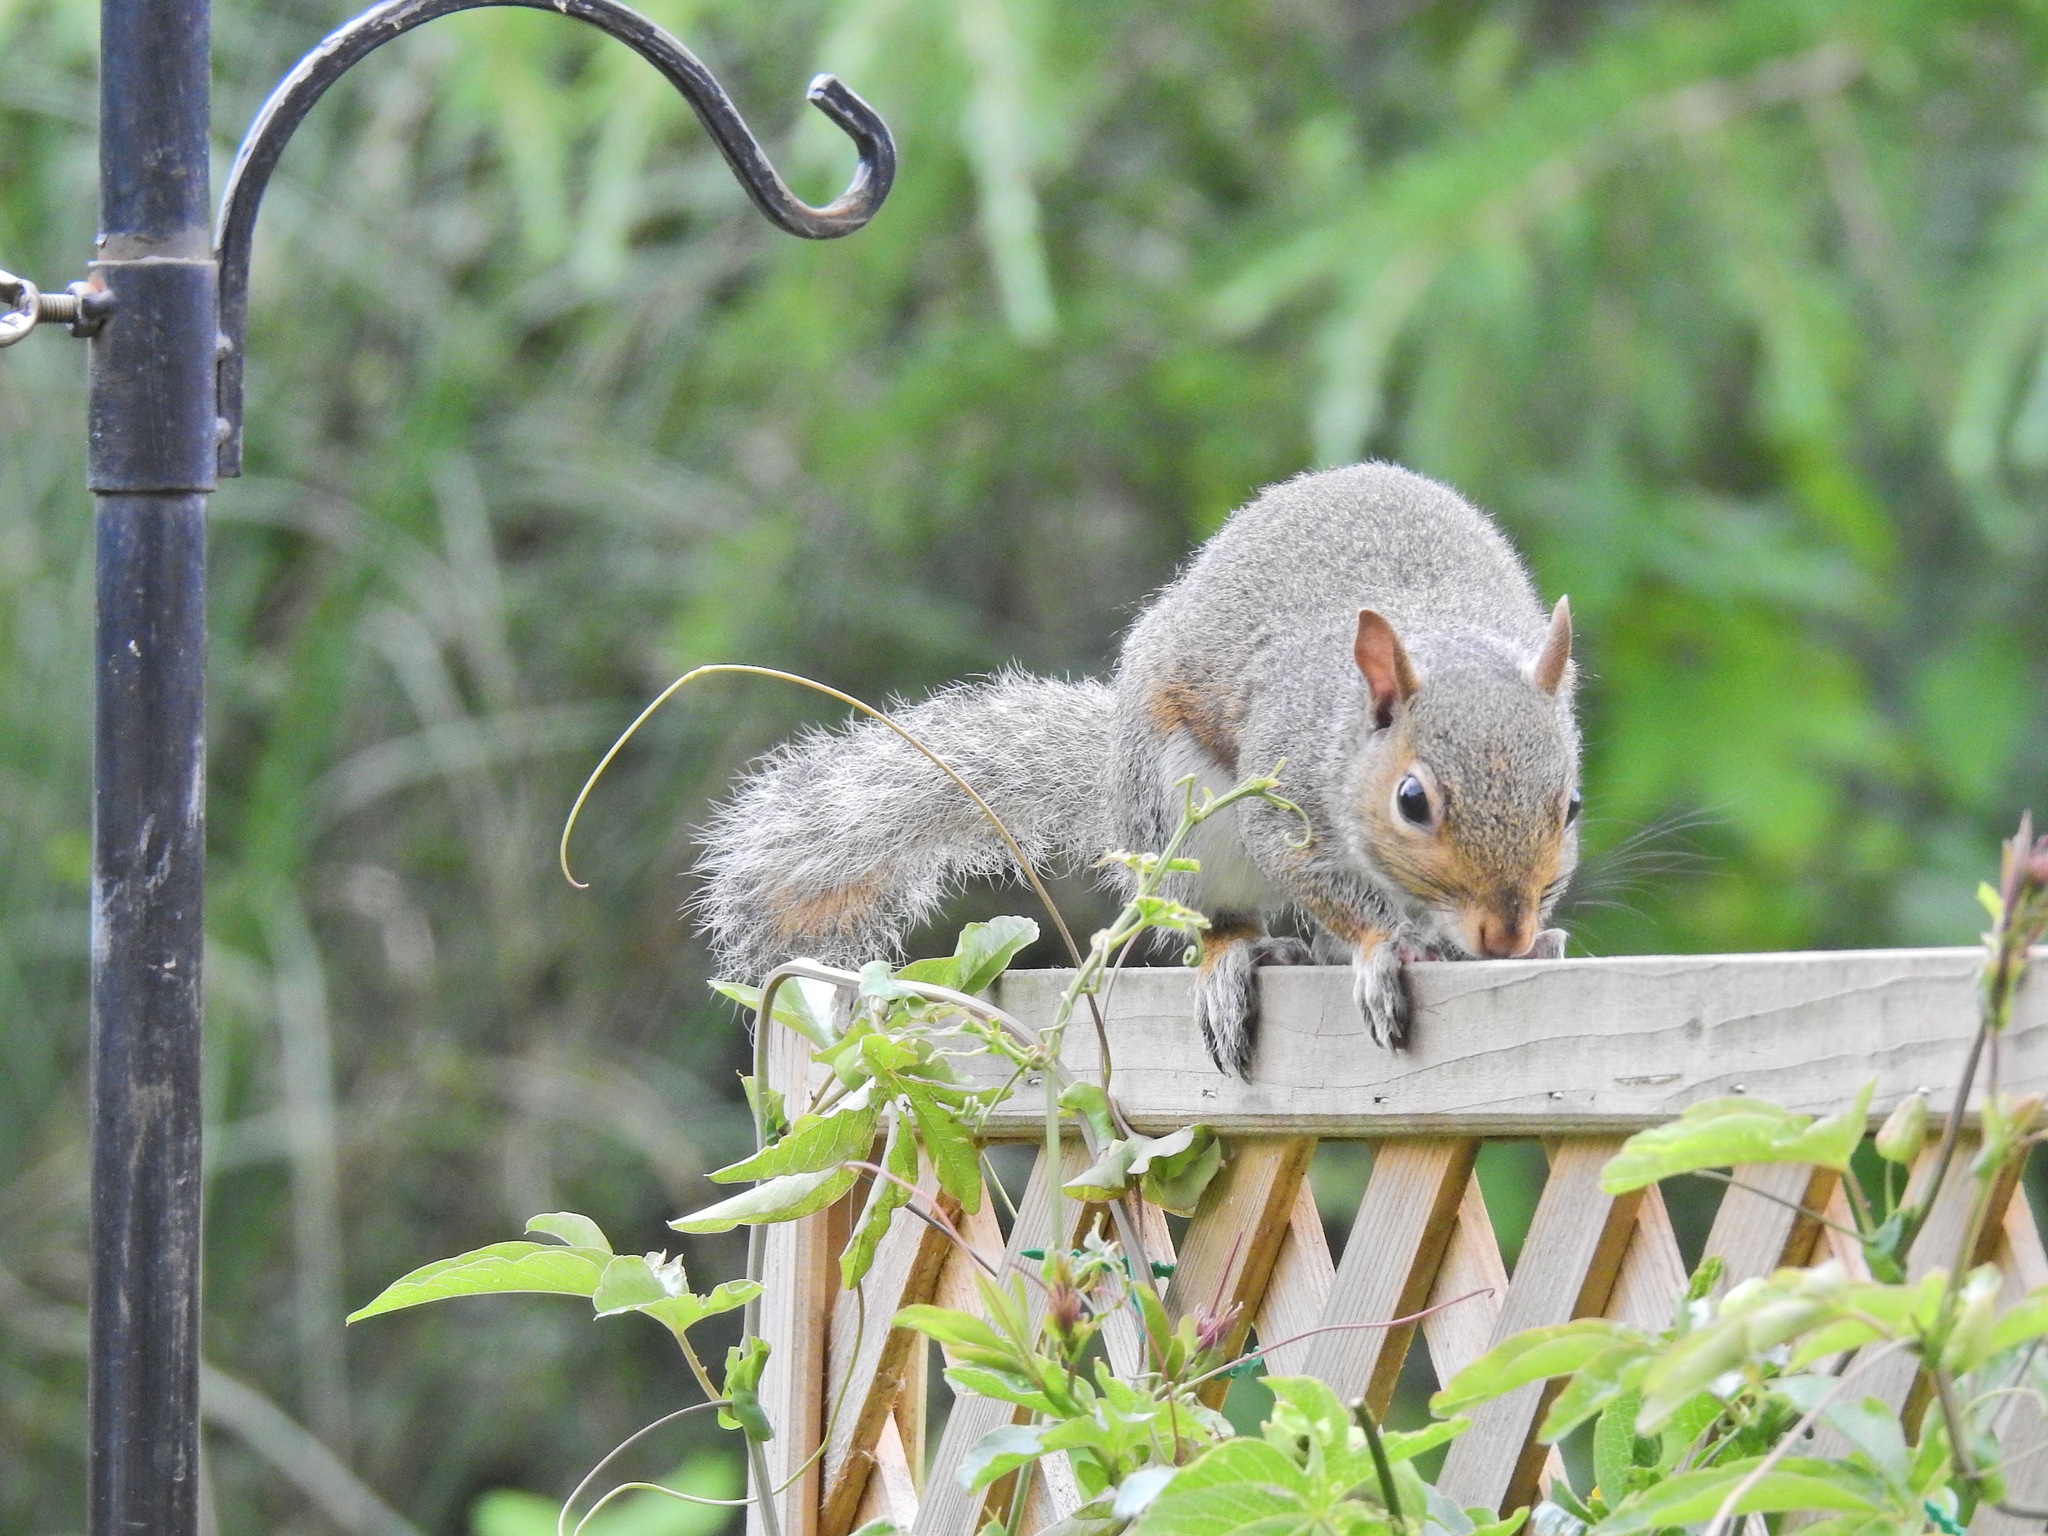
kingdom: Animalia
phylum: Chordata
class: Mammalia
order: Rodentia
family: Sciuridae
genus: Sciurus
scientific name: Sciurus carolinensis
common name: Eastern gray squirrel
